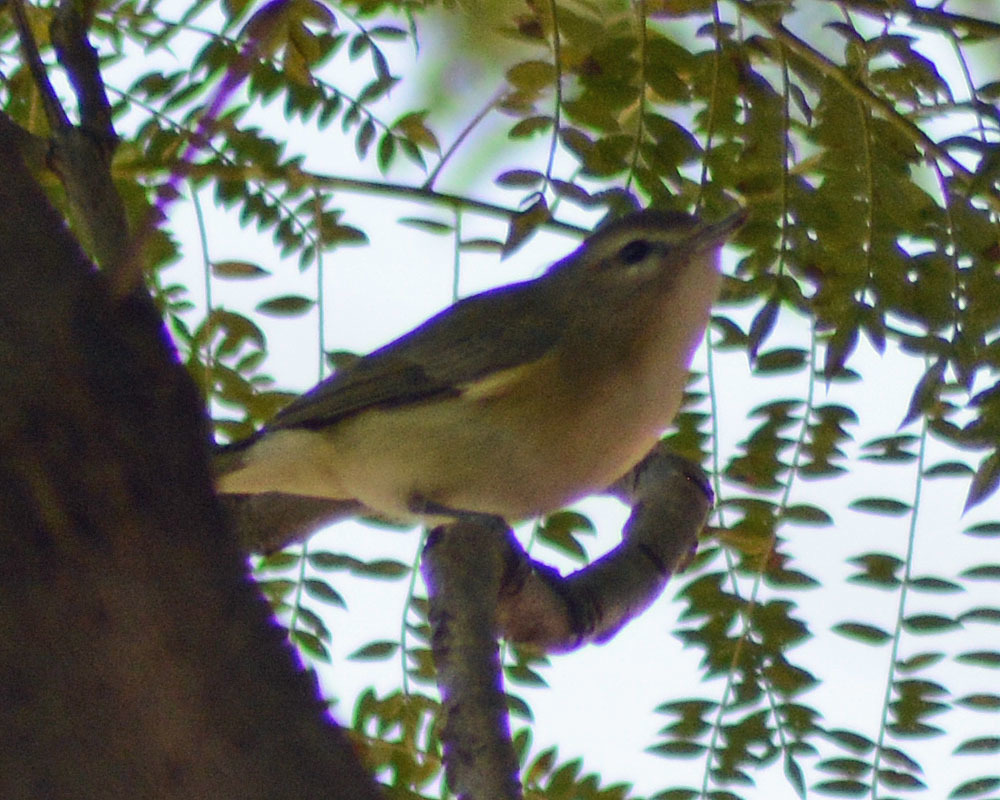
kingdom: Animalia
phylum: Chordata
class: Aves
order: Passeriformes
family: Vireonidae
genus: Vireo
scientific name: Vireo gilvus
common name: Warbling vireo
